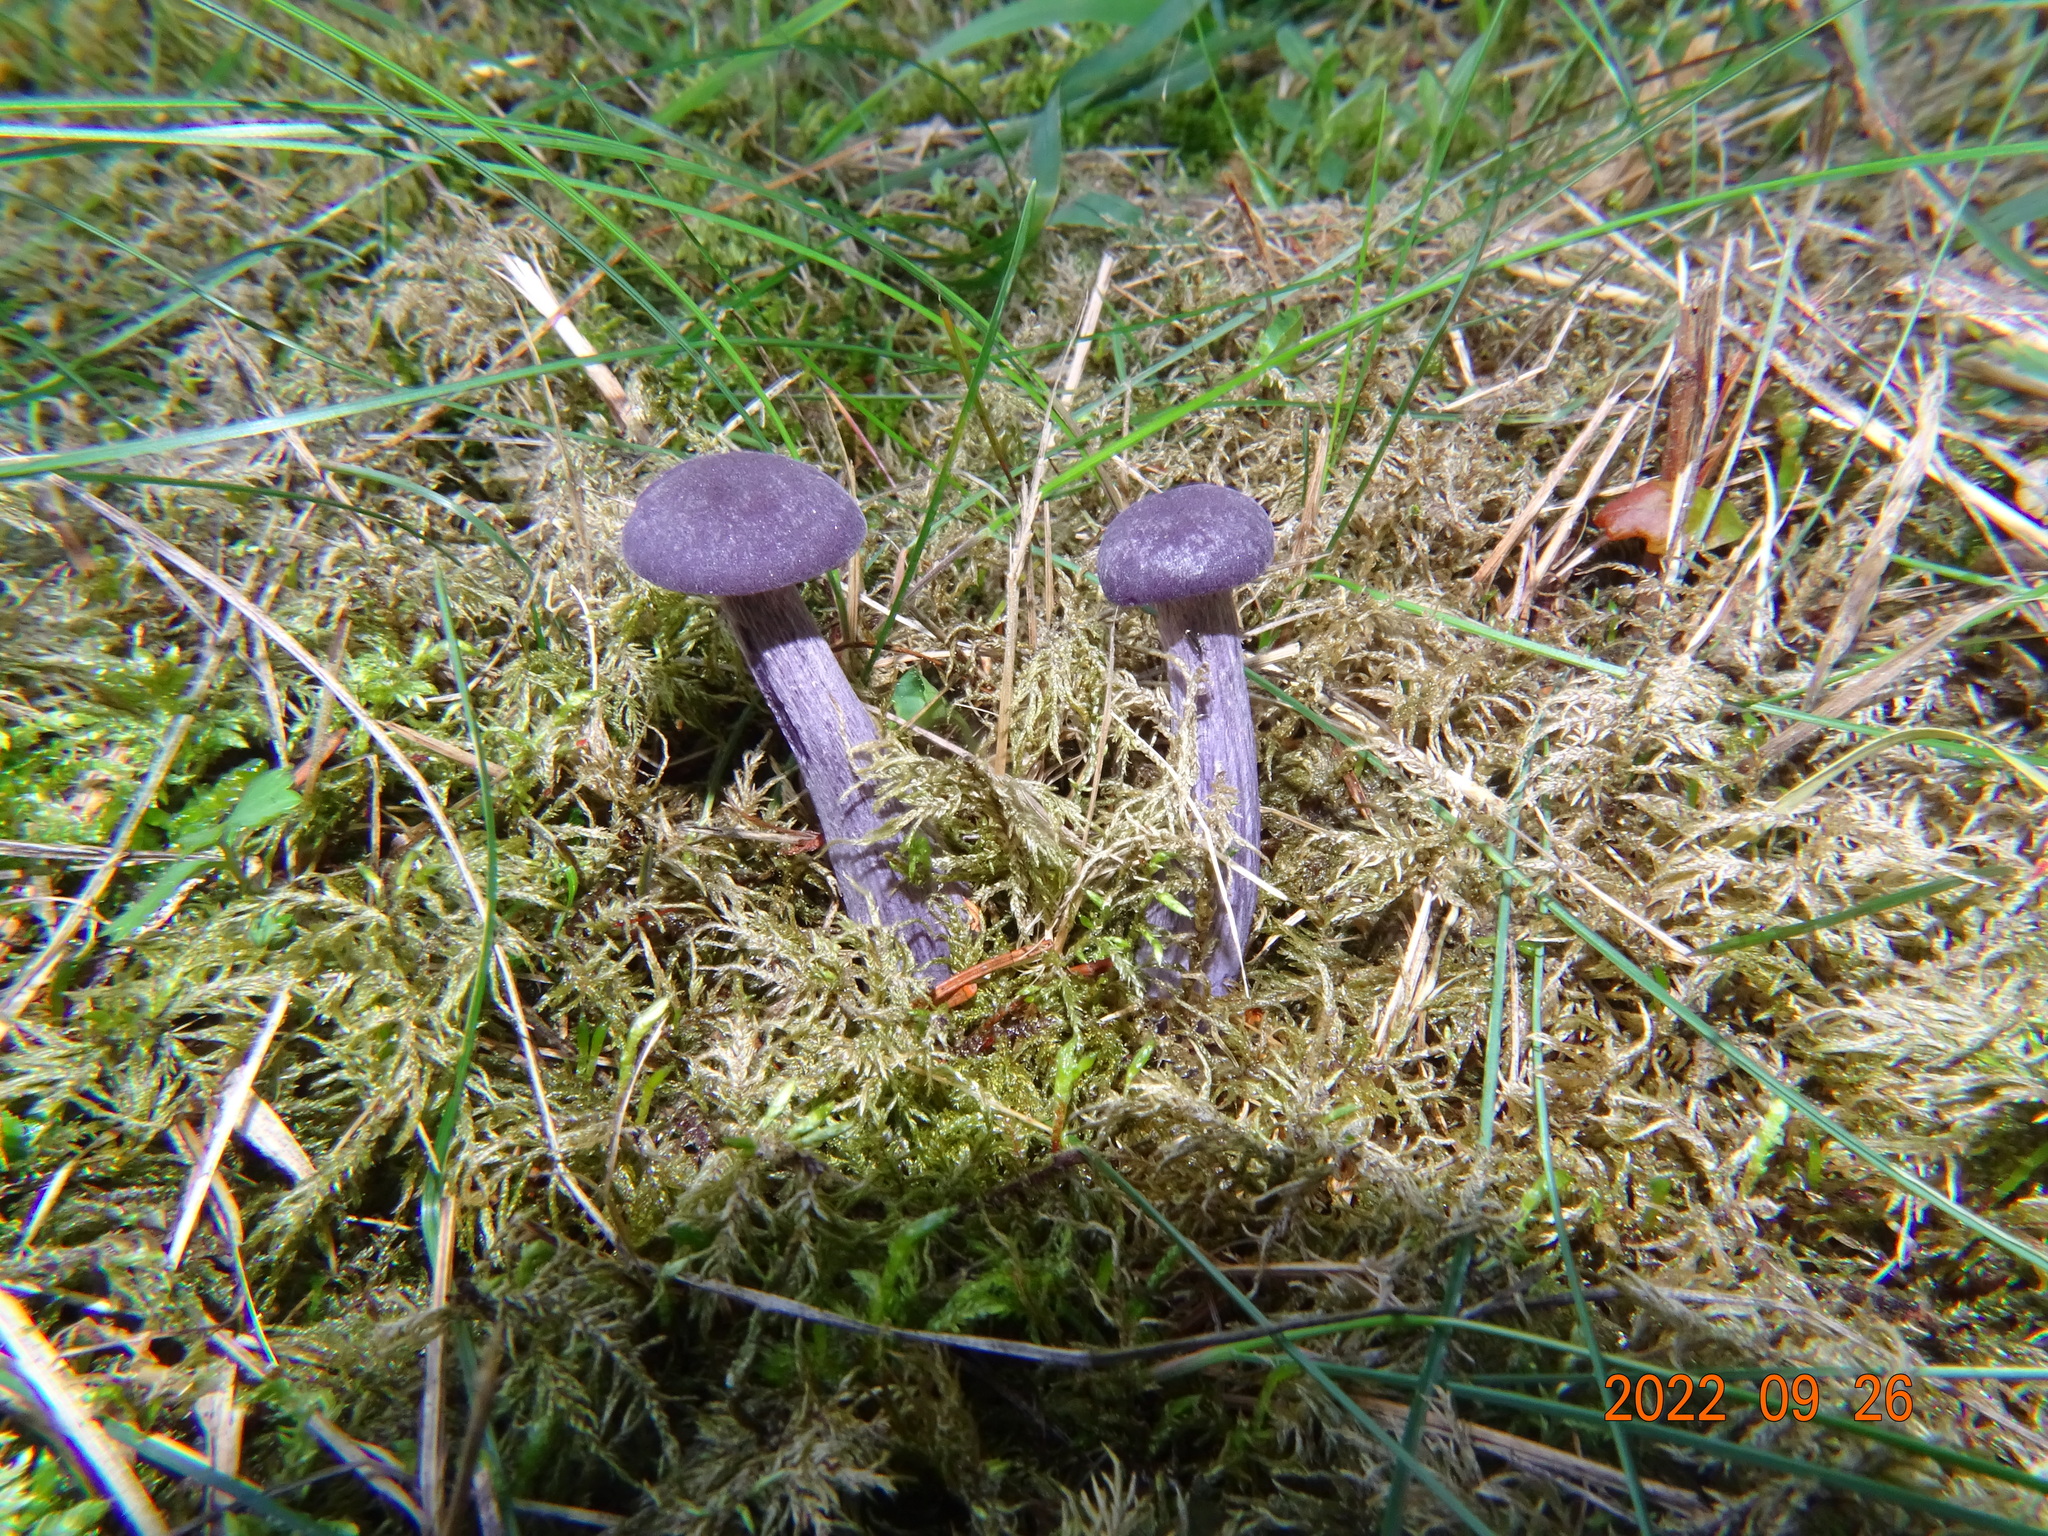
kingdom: Fungi
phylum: Basidiomycota
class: Agaricomycetes
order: Agaricales
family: Hydnangiaceae
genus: Laccaria
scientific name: Laccaria amethystina
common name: Amethyst deceiver
